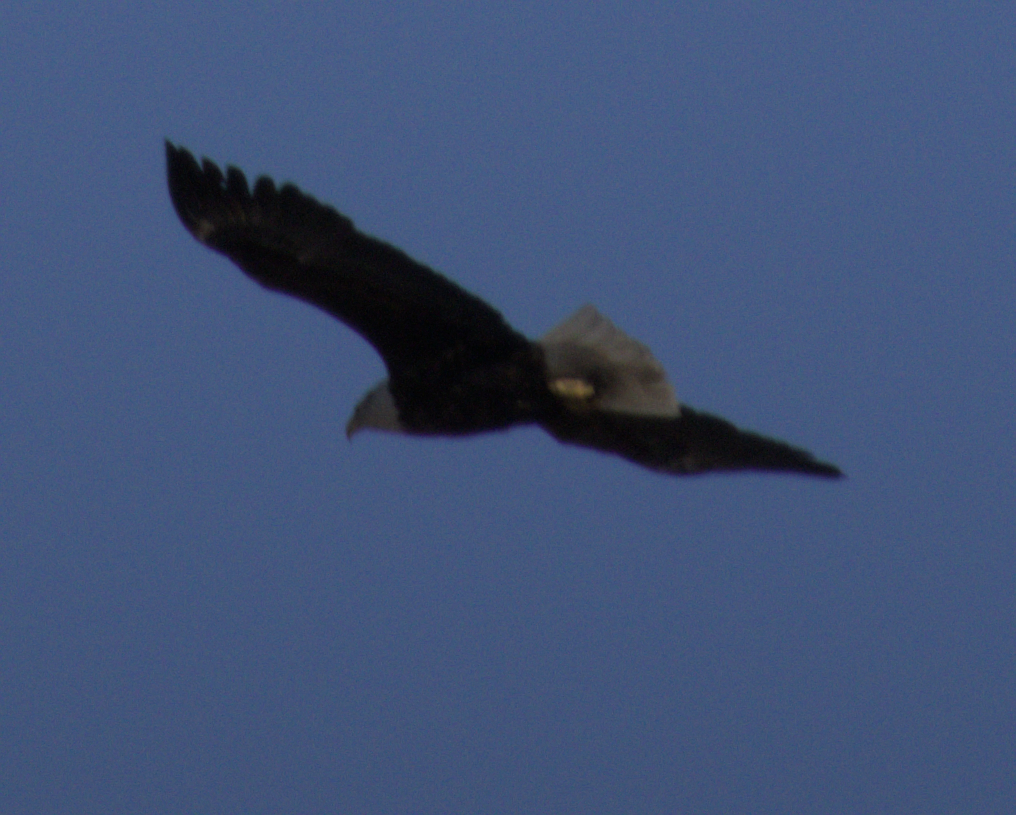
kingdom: Animalia
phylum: Chordata
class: Aves
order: Accipitriformes
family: Accipitridae
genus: Haliaeetus
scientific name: Haliaeetus leucocephalus
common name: Bald eagle
